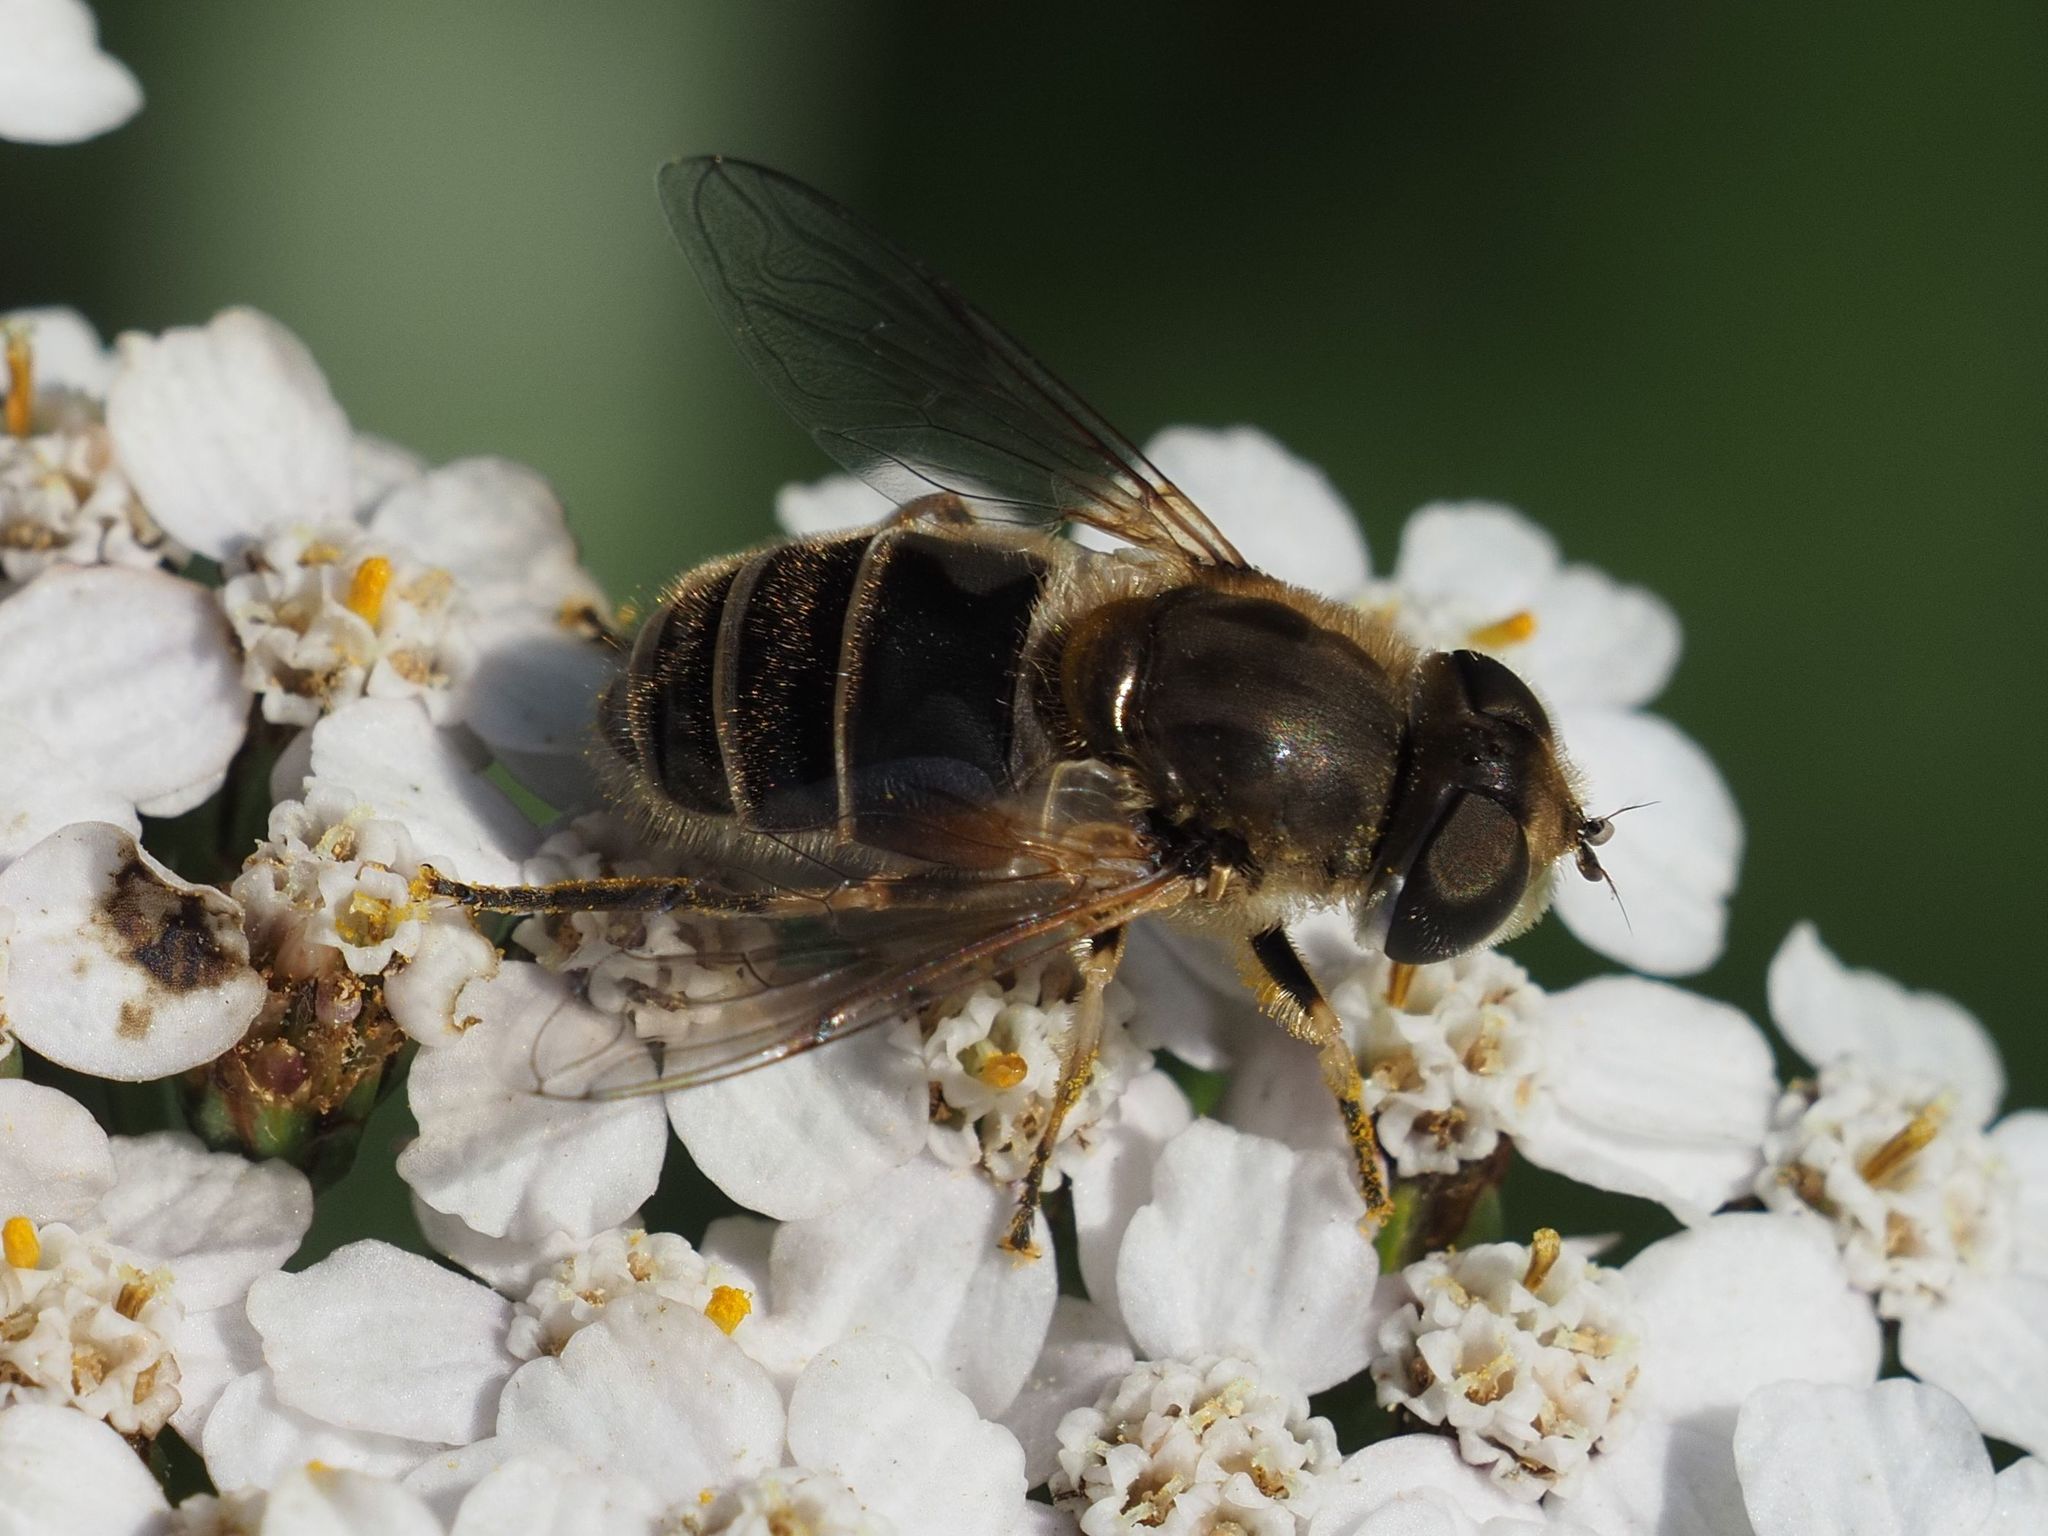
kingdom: Animalia
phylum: Arthropoda
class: Insecta
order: Diptera
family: Syrphidae
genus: Eristalis
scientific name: Eristalis arbustorum
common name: Hover fly
